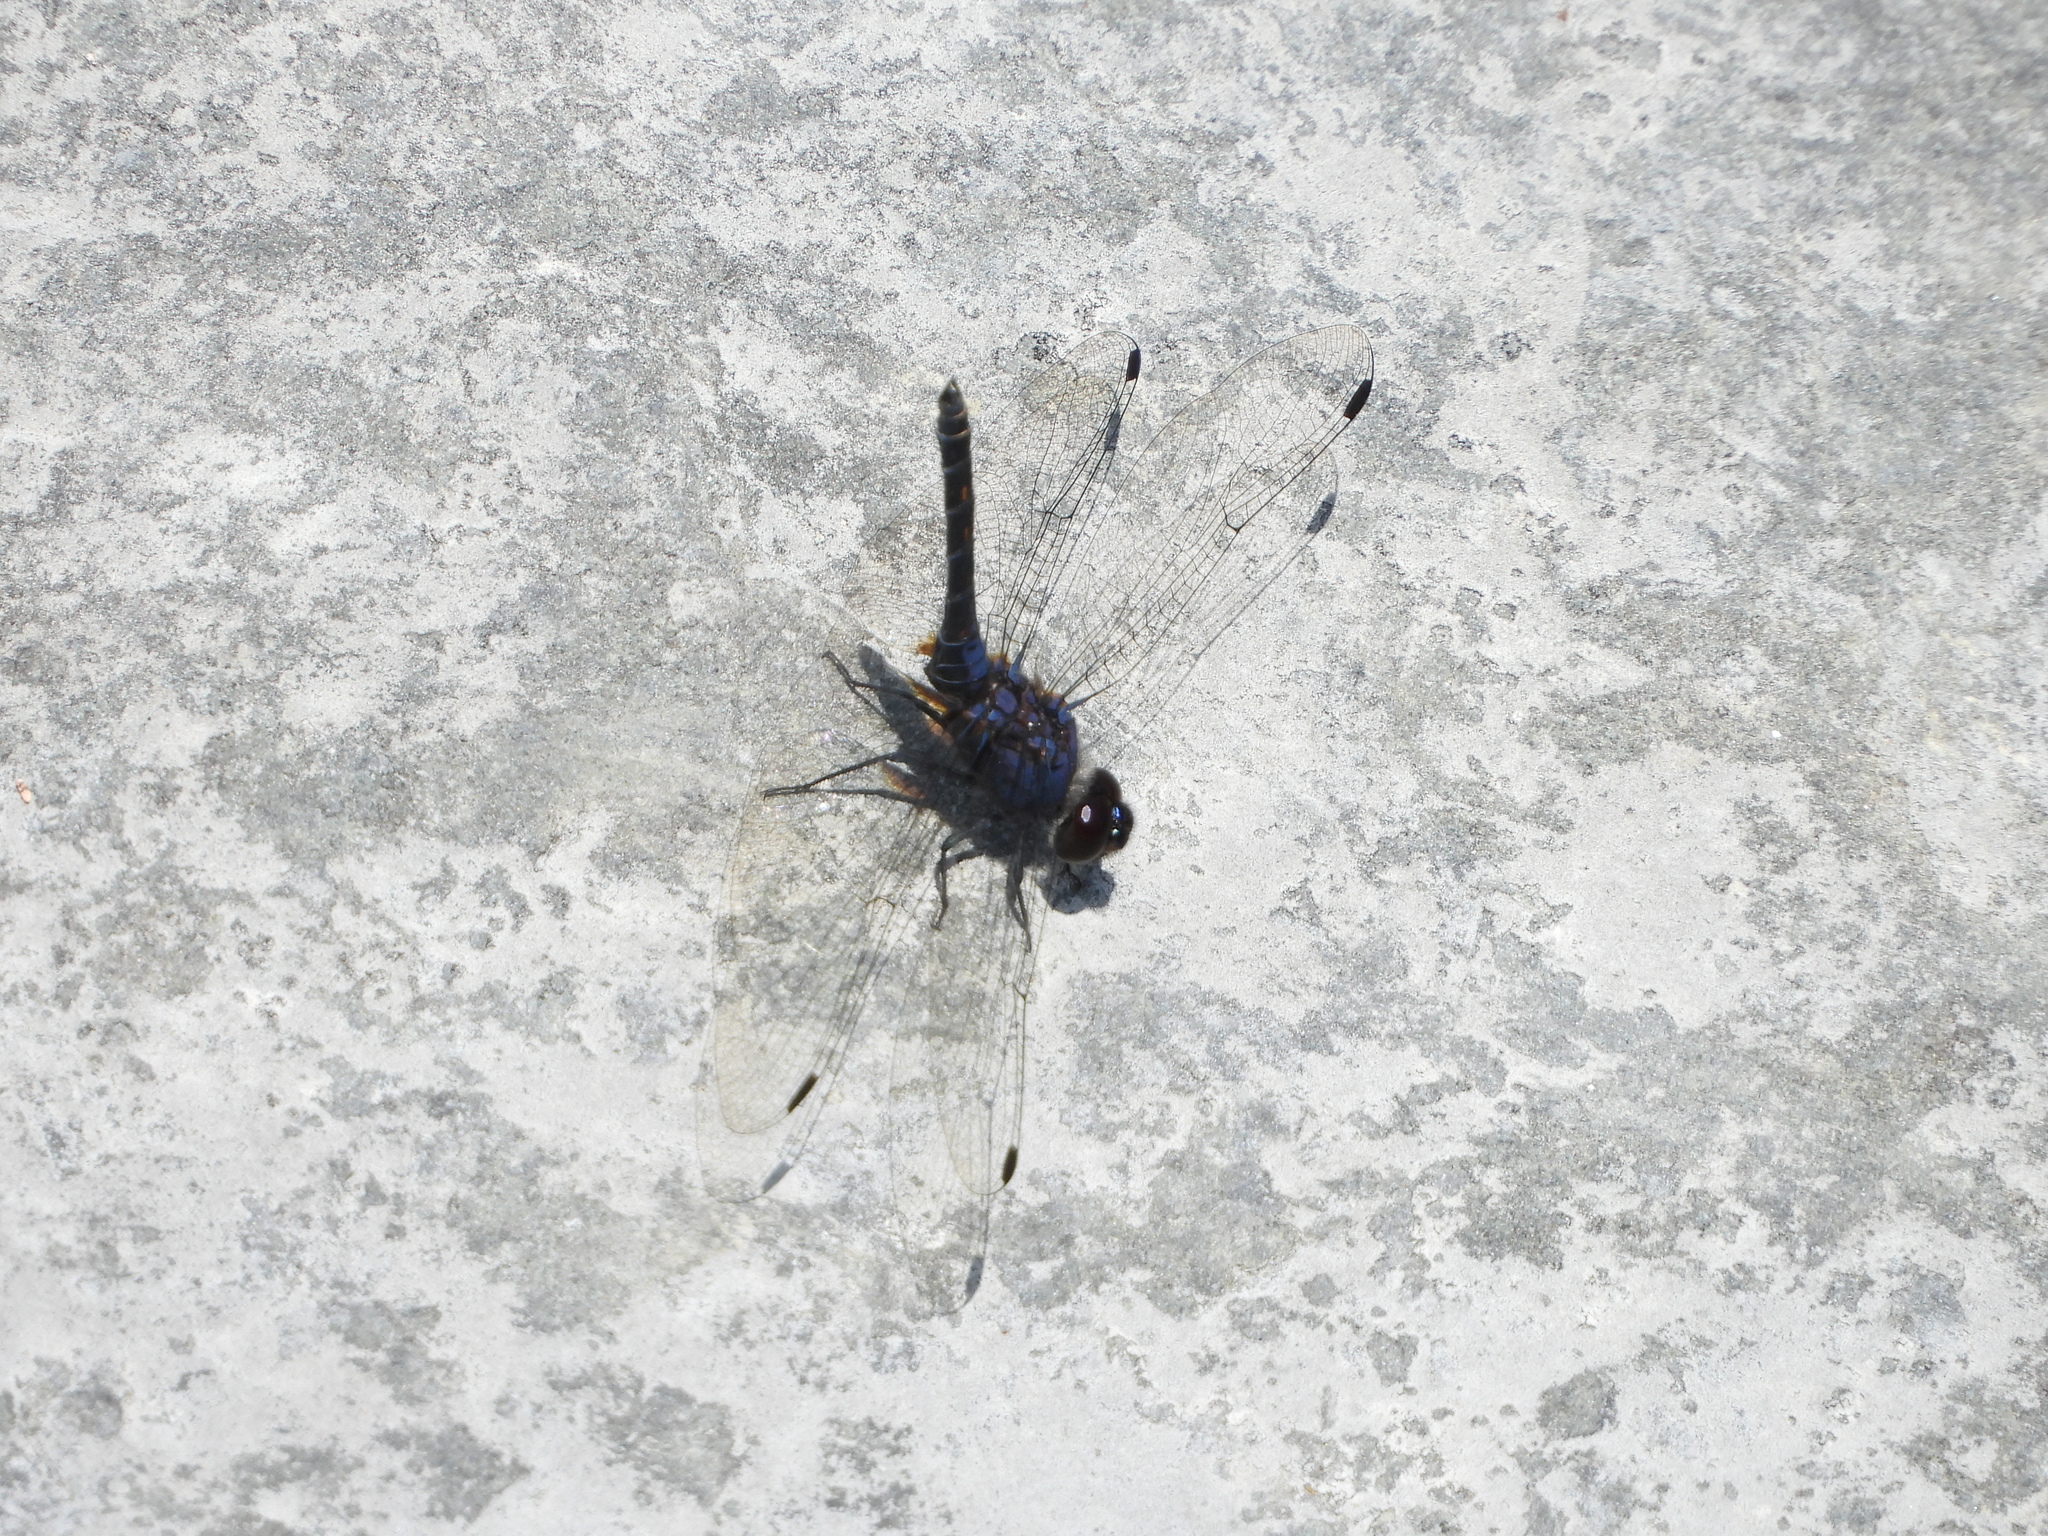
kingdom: Animalia
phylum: Arthropoda
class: Insecta
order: Odonata
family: Libellulidae
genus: Trithemis
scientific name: Trithemis festiva
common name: Indigo dropwing
